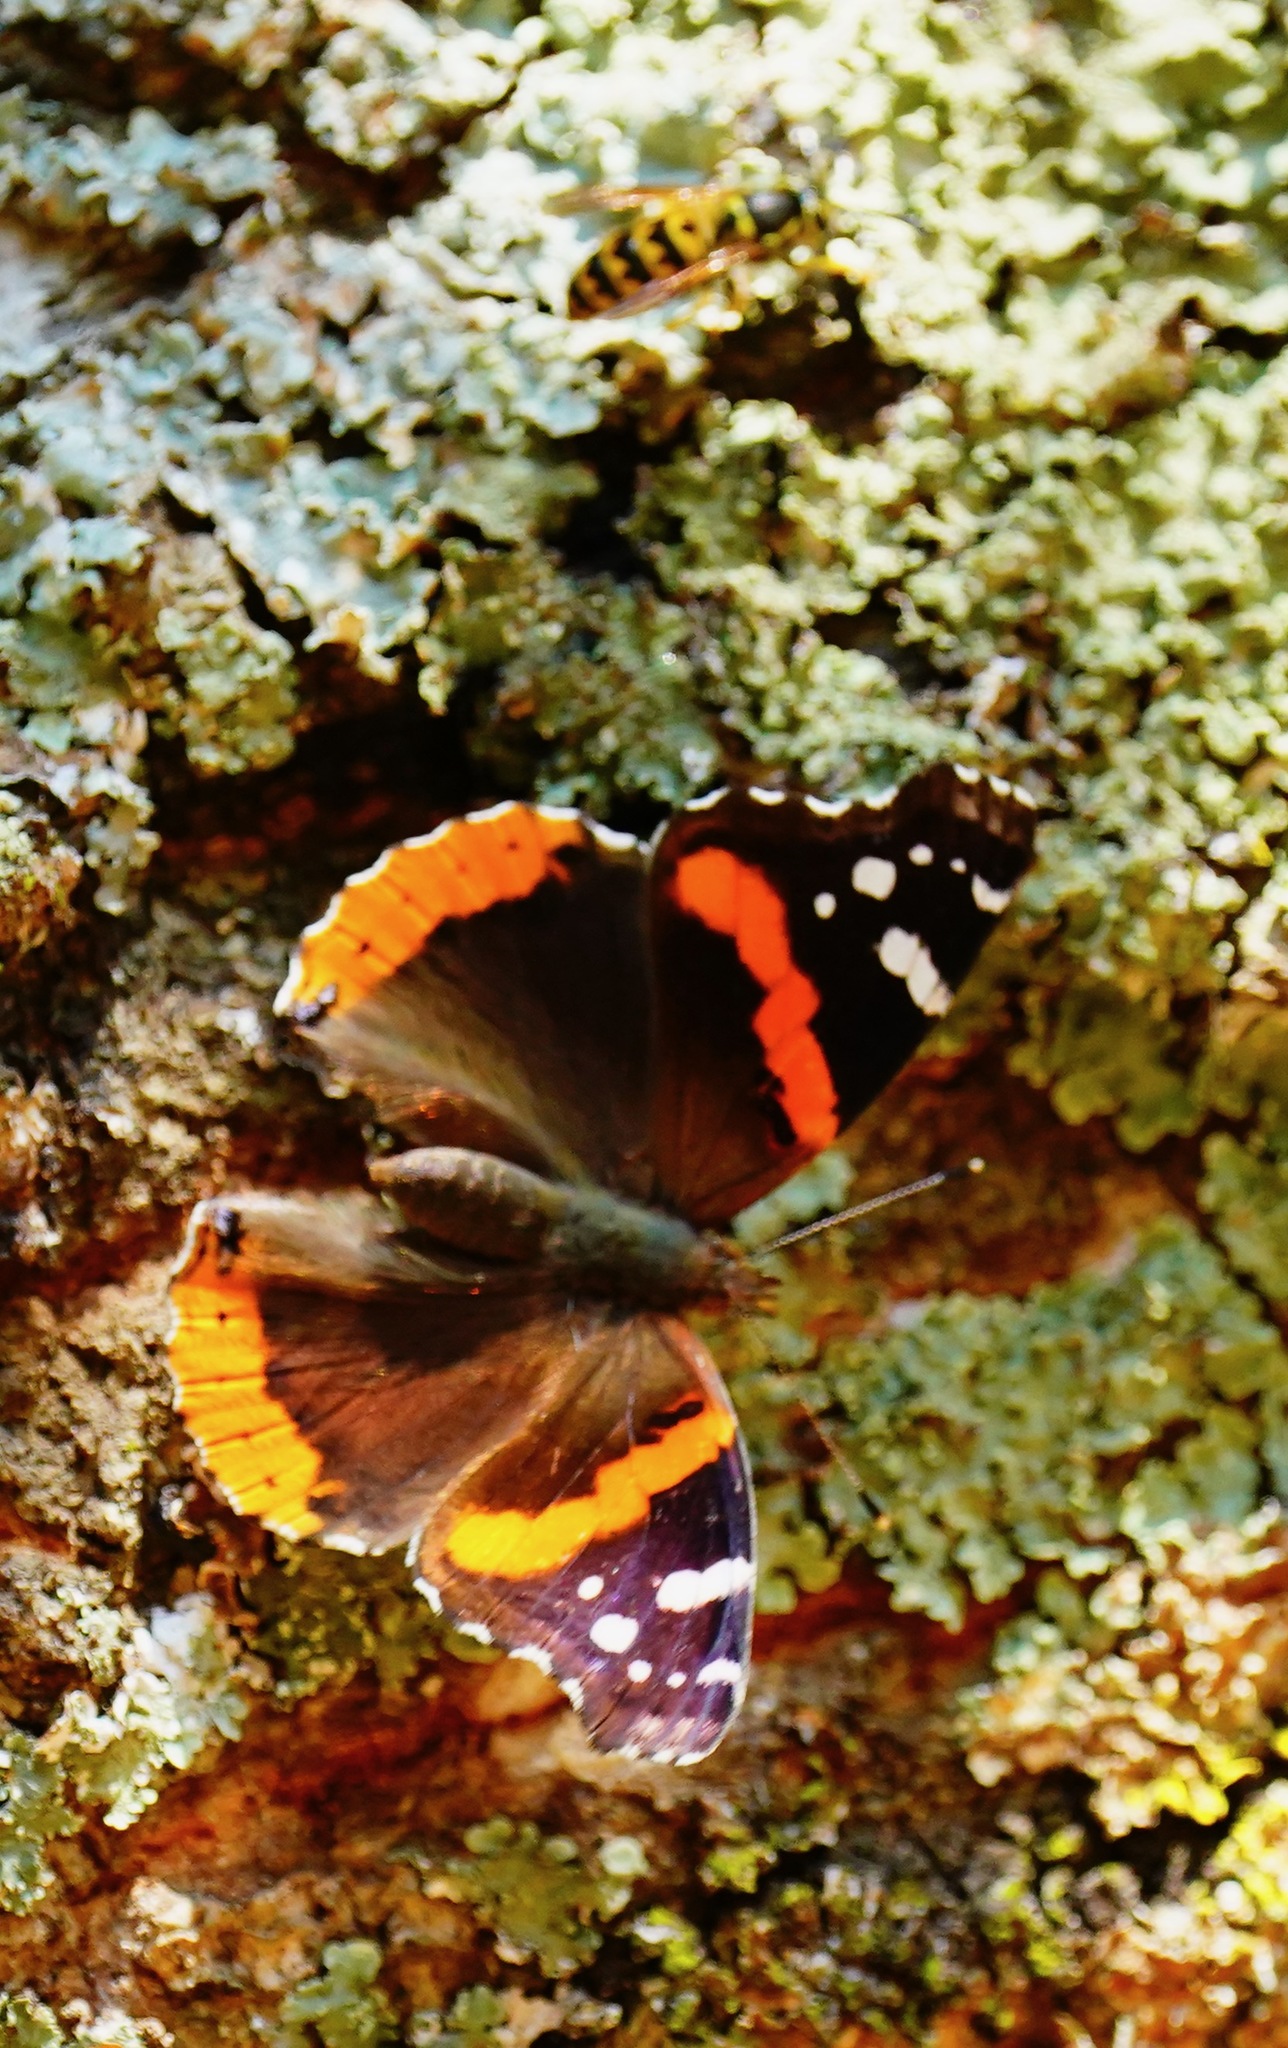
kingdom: Animalia
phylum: Arthropoda
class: Insecta
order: Lepidoptera
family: Nymphalidae
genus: Vanessa
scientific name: Vanessa atalanta
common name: Red admiral
